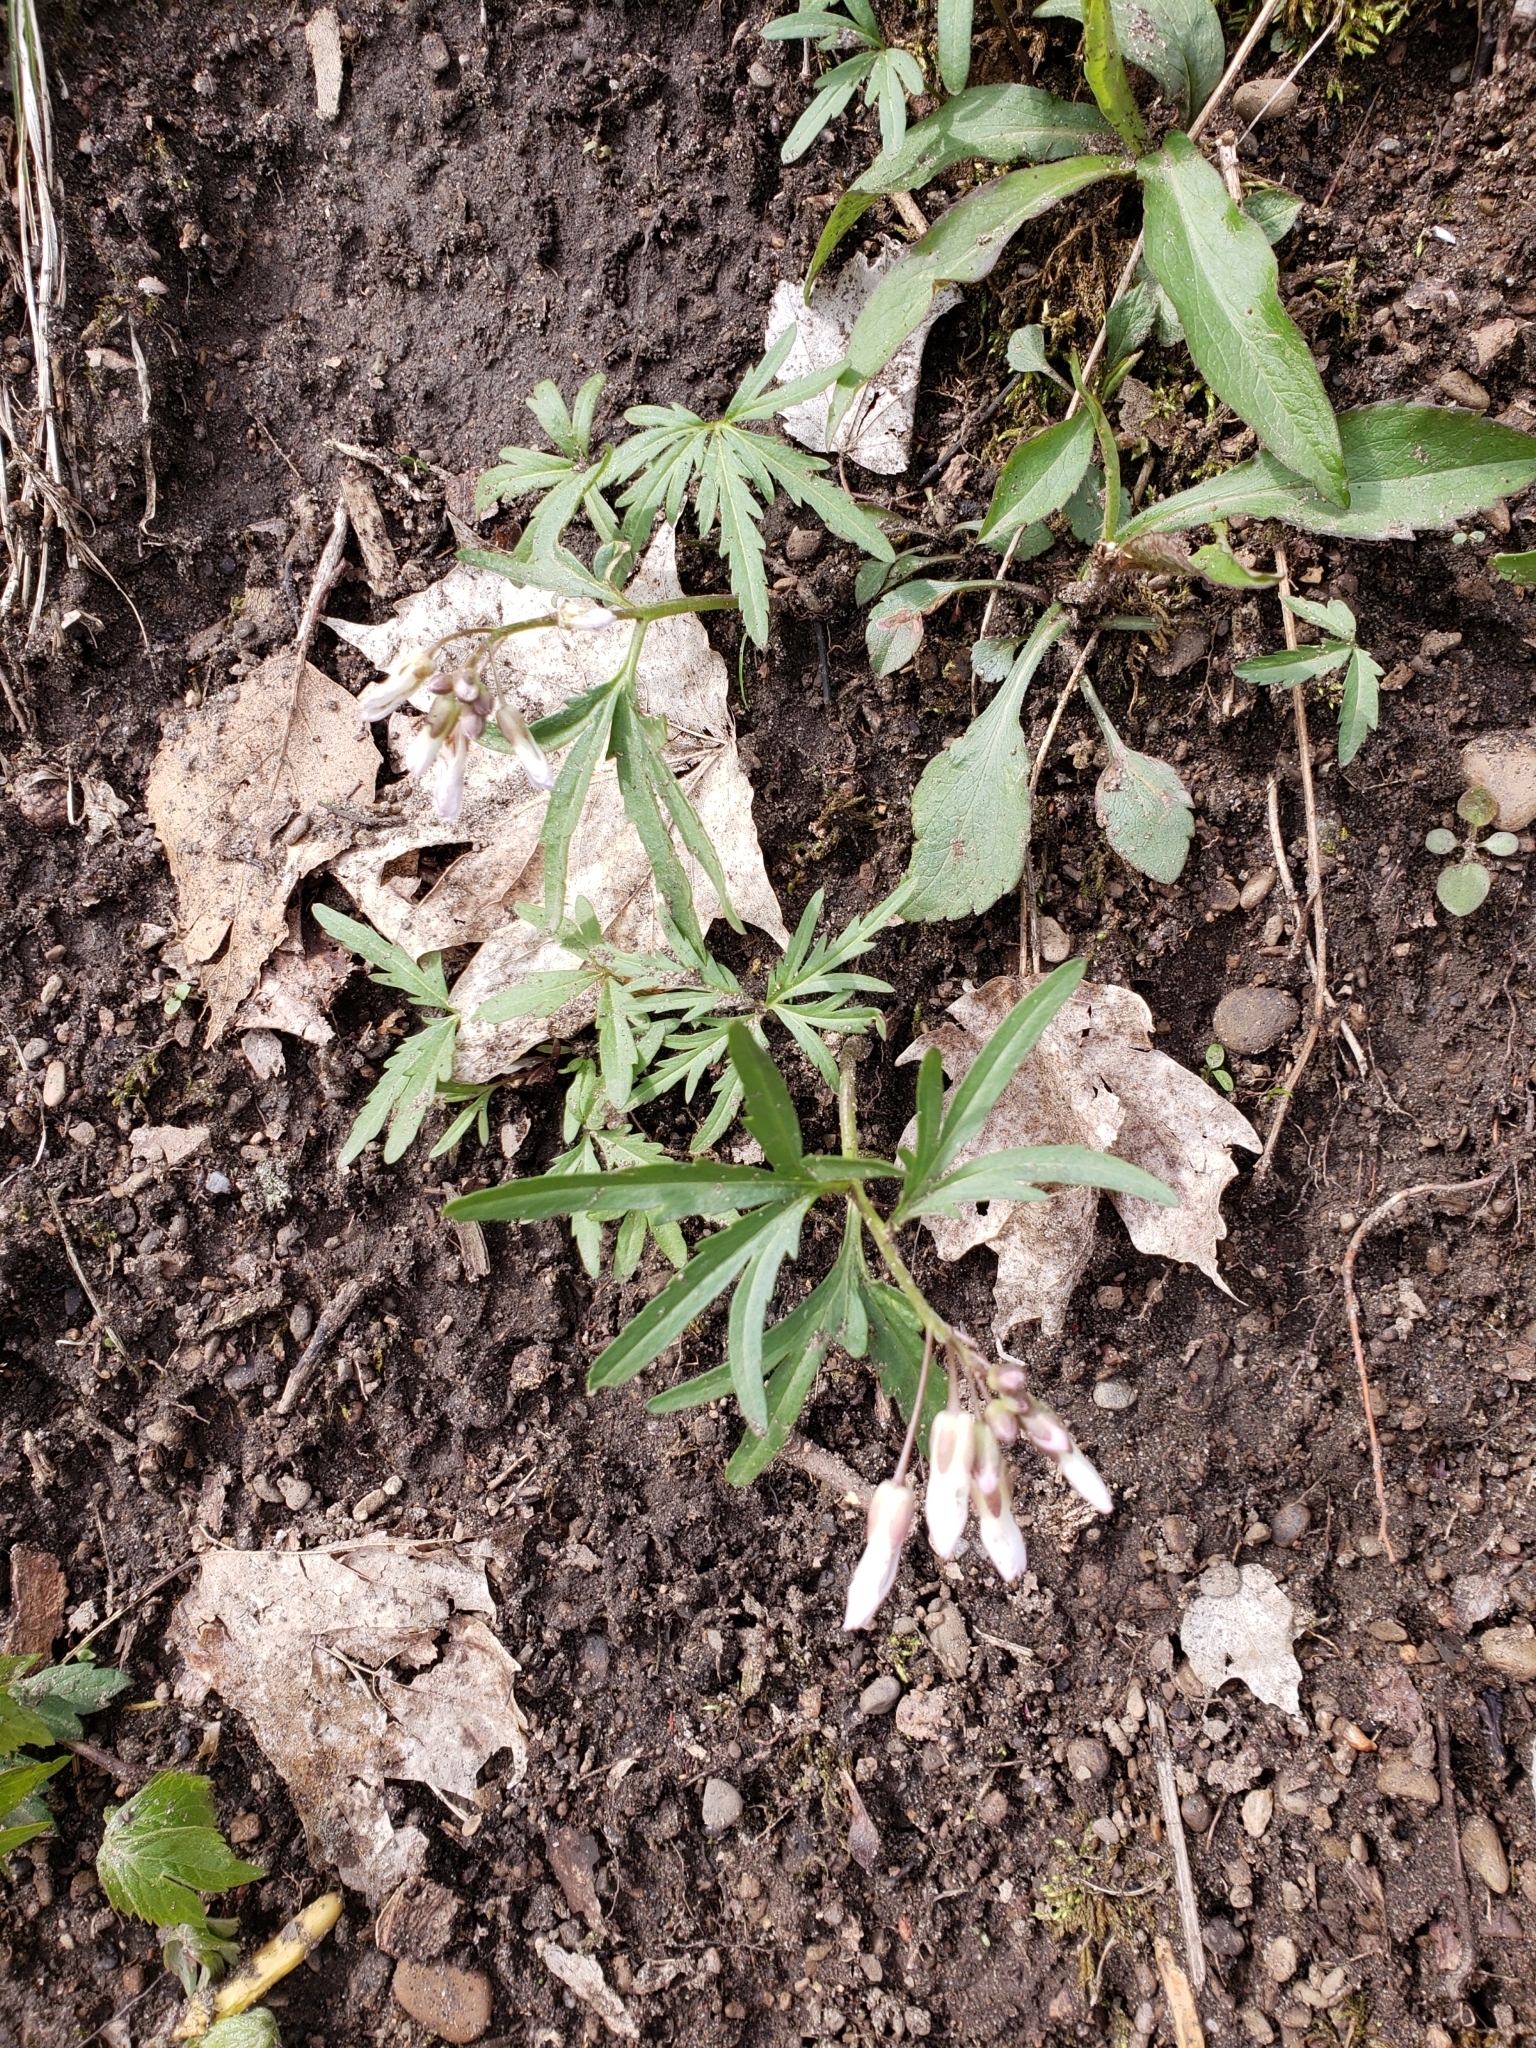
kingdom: Plantae
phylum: Tracheophyta
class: Magnoliopsida
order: Brassicales
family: Brassicaceae
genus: Cardamine
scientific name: Cardamine concatenata
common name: Cut-leaf toothcup
